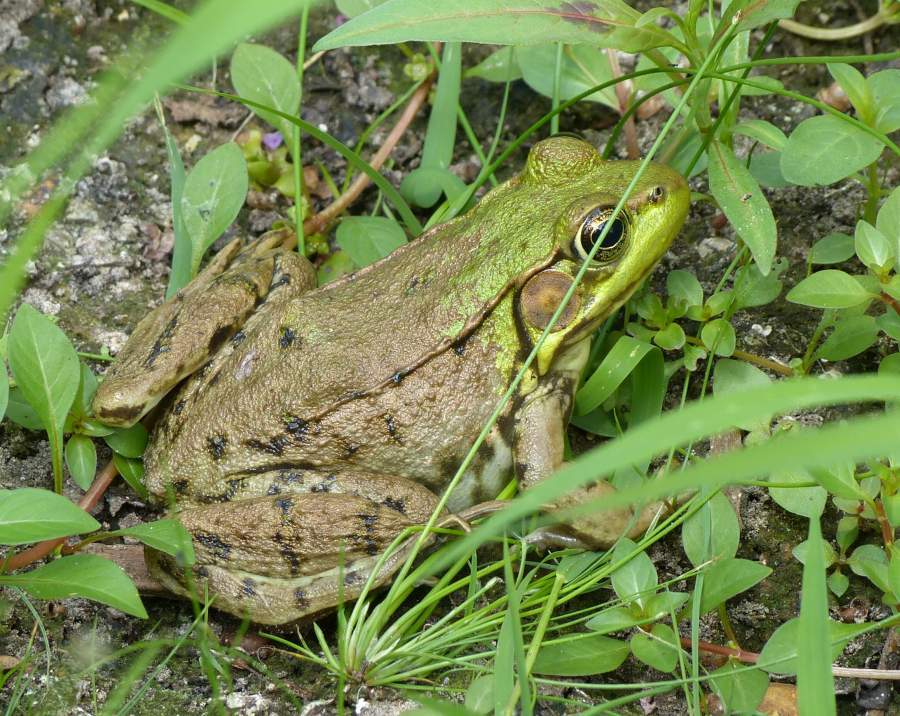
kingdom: Animalia
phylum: Chordata
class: Amphibia
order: Anura
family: Ranidae
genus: Lithobates
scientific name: Lithobates clamitans
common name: Green frog
